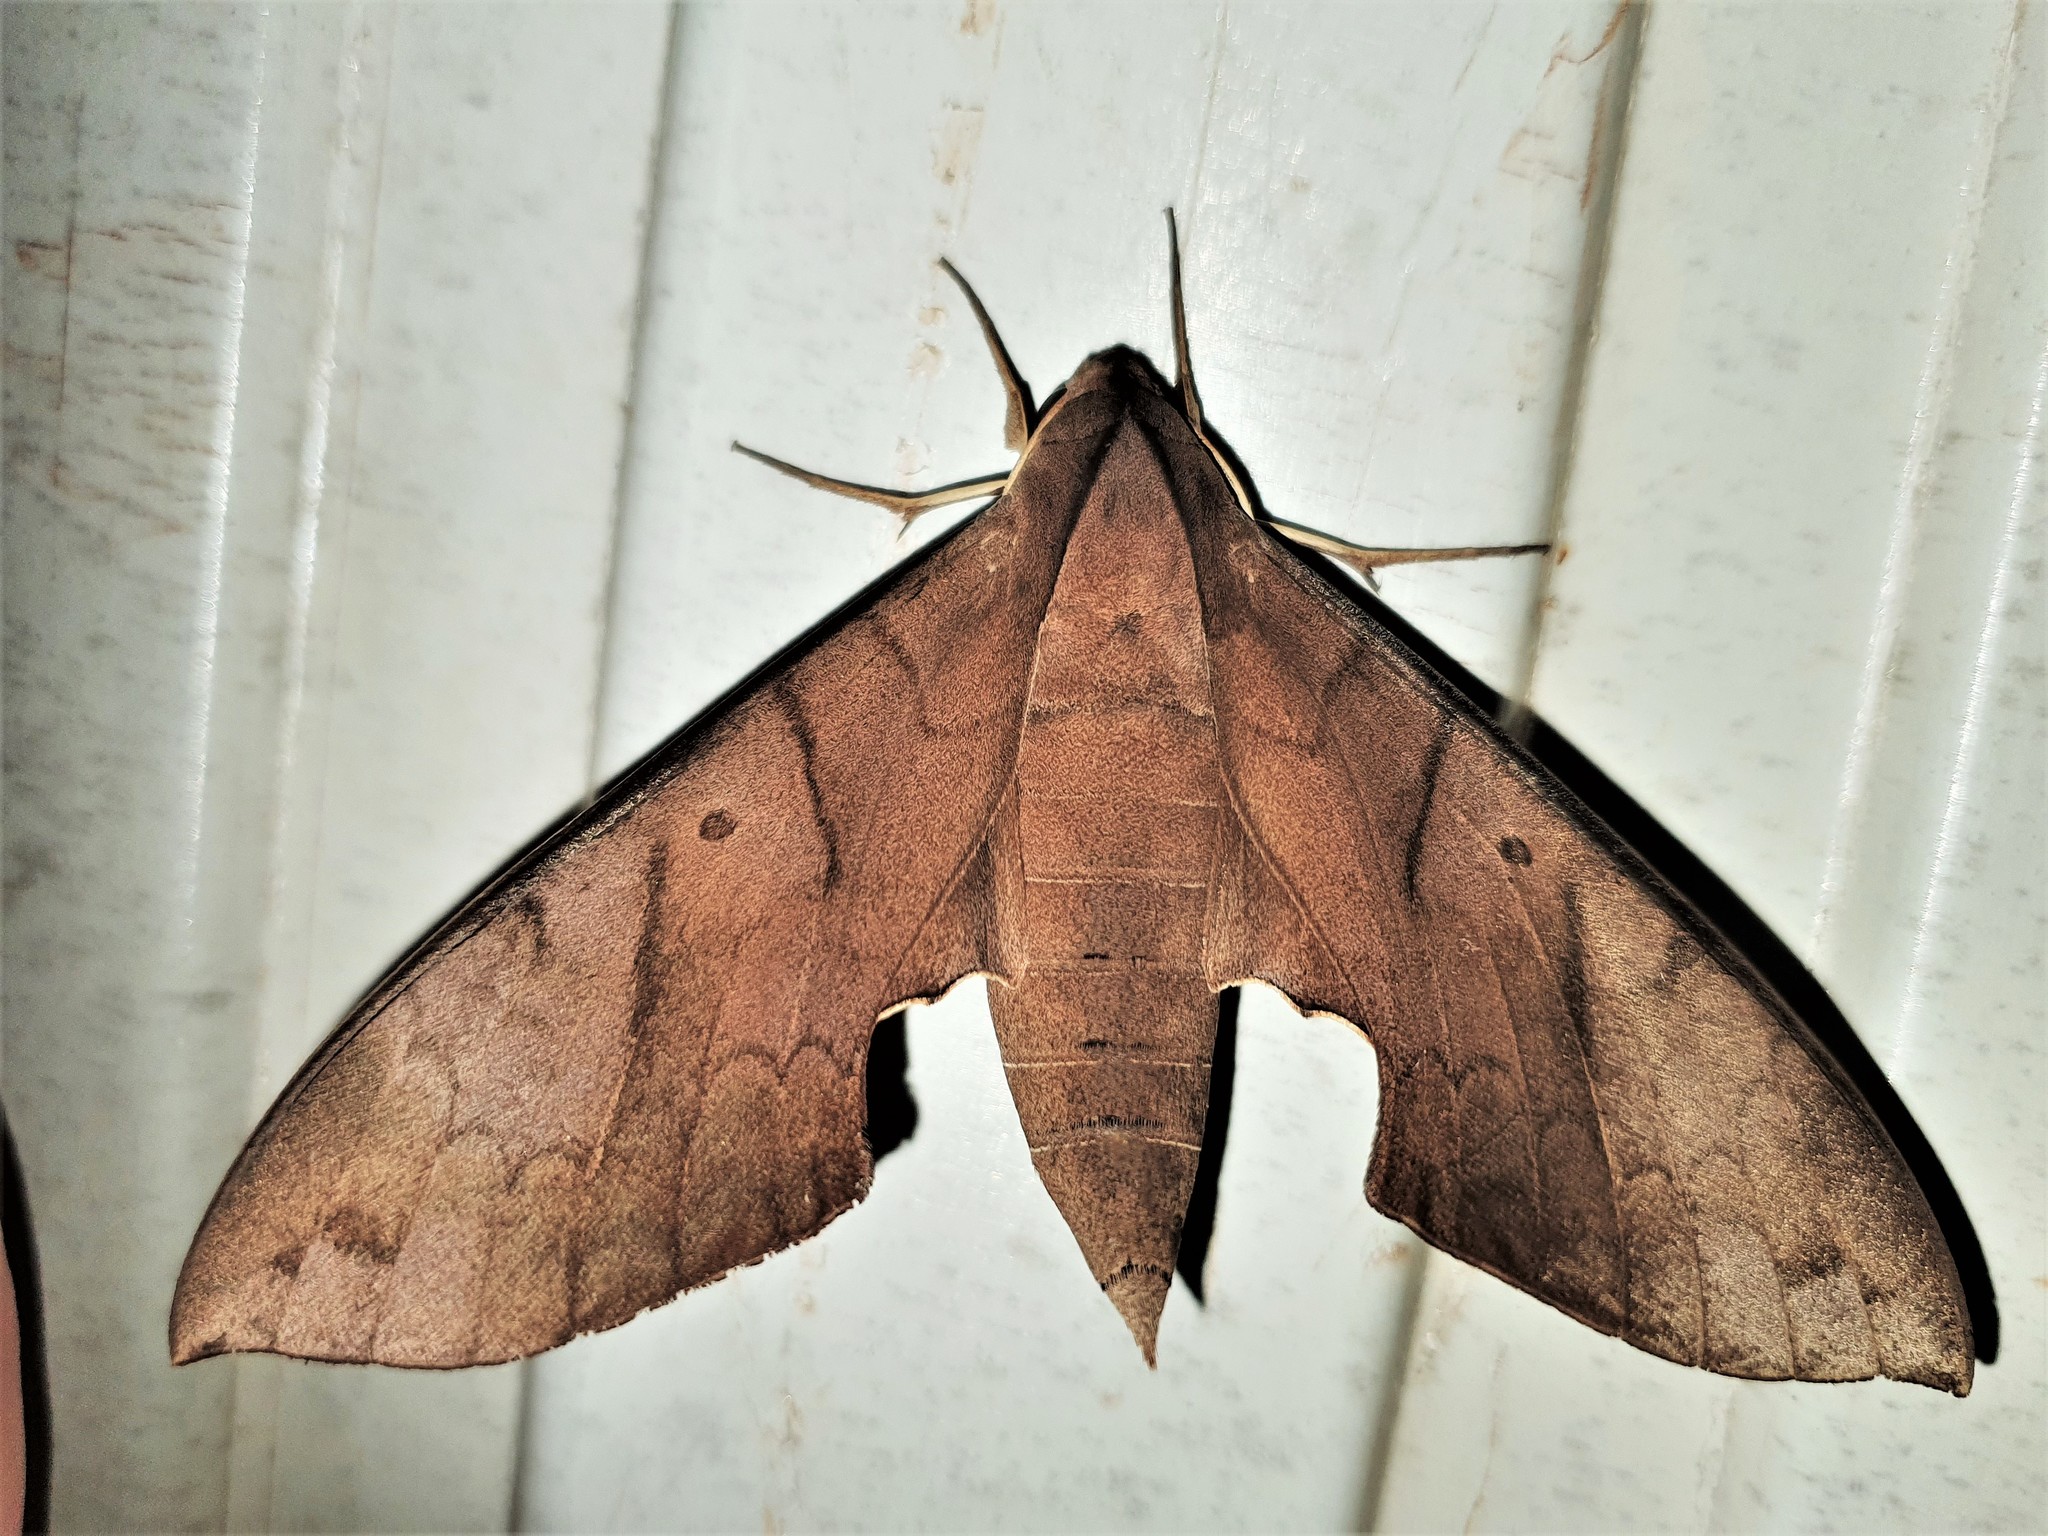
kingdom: Animalia
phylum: Arthropoda
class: Insecta
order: Lepidoptera
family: Sphingidae
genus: Pachylia
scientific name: Pachylia darceta
